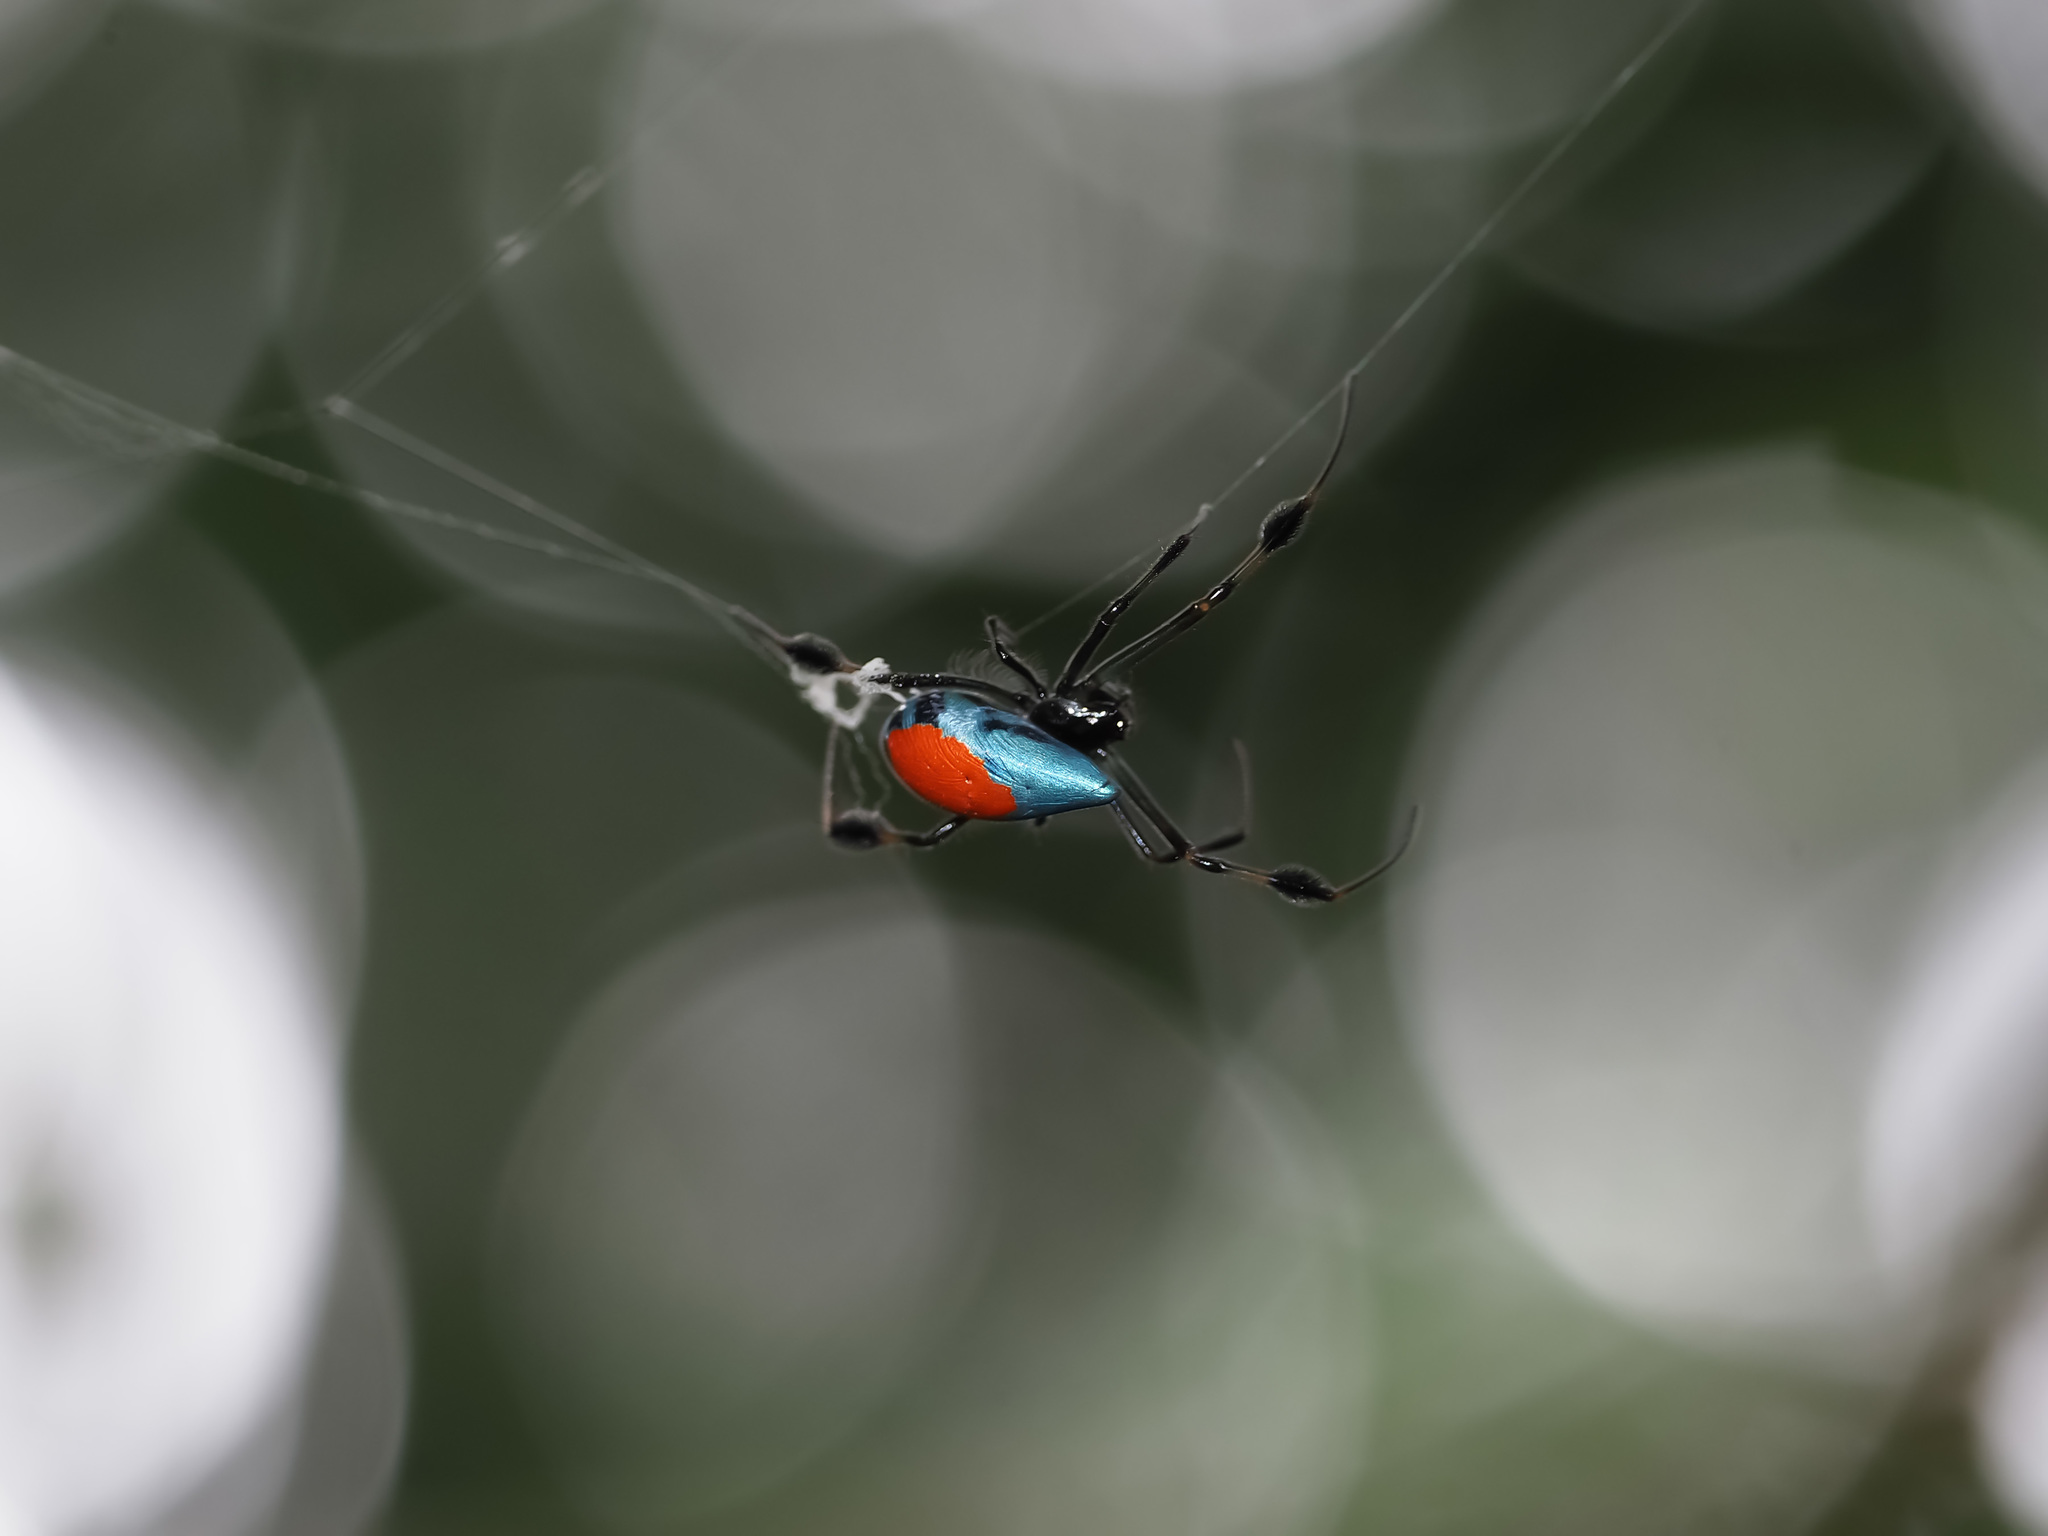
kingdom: Animalia
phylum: Arthropoda
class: Arachnida
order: Araneae
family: Tetragnathidae
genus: Leucauge
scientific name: Leucauge sarawakensis
